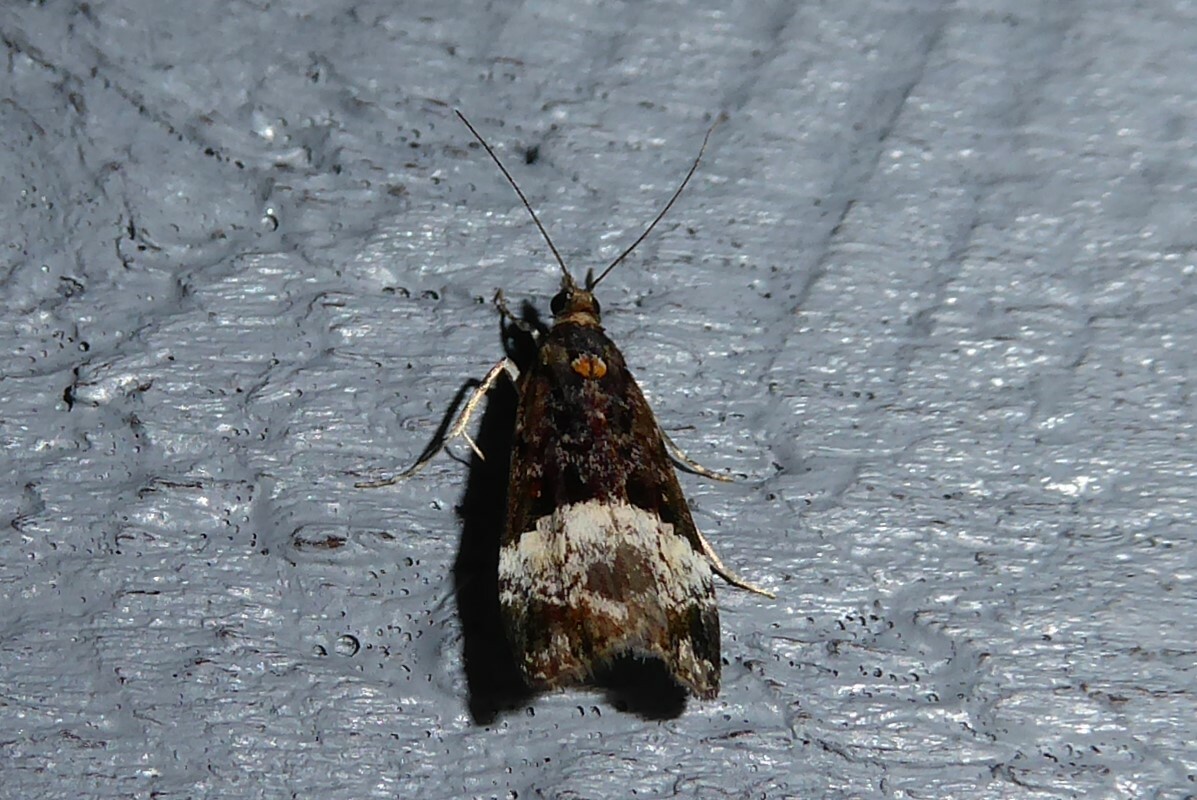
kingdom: Animalia
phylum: Arthropoda
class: Insecta
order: Lepidoptera
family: Crambidae
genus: Scoparia
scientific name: Scoparia minusculalis
